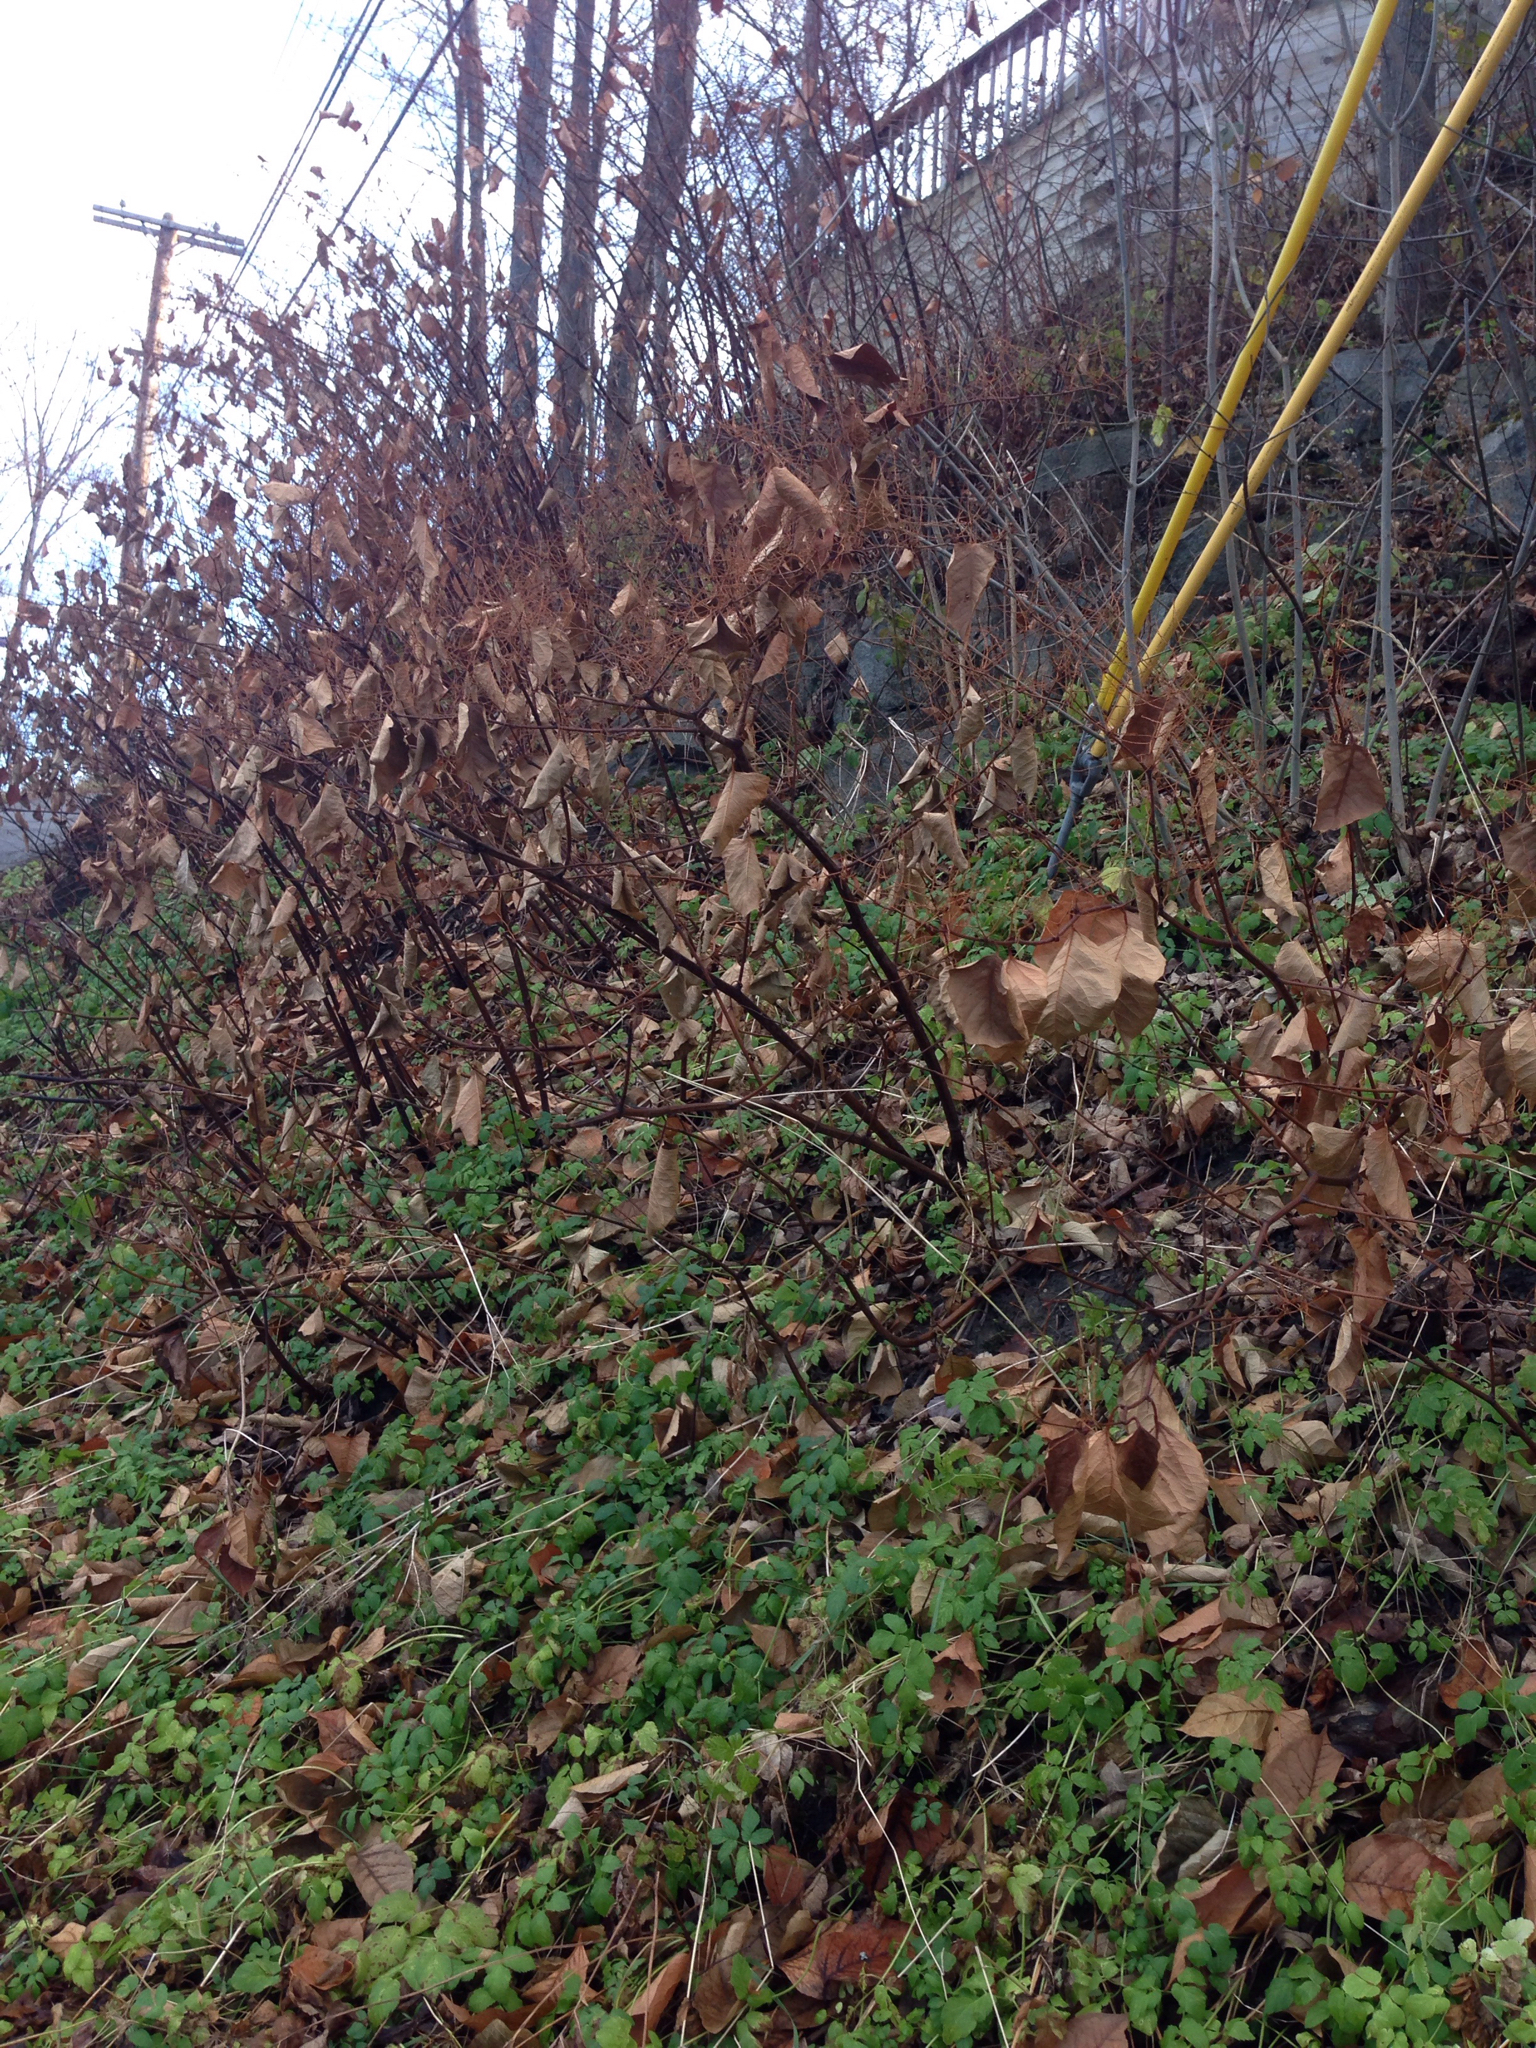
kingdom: Plantae
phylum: Tracheophyta
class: Magnoliopsida
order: Caryophyllales
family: Polygonaceae
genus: Reynoutria
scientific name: Reynoutria japonica
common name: Japanese knotweed
